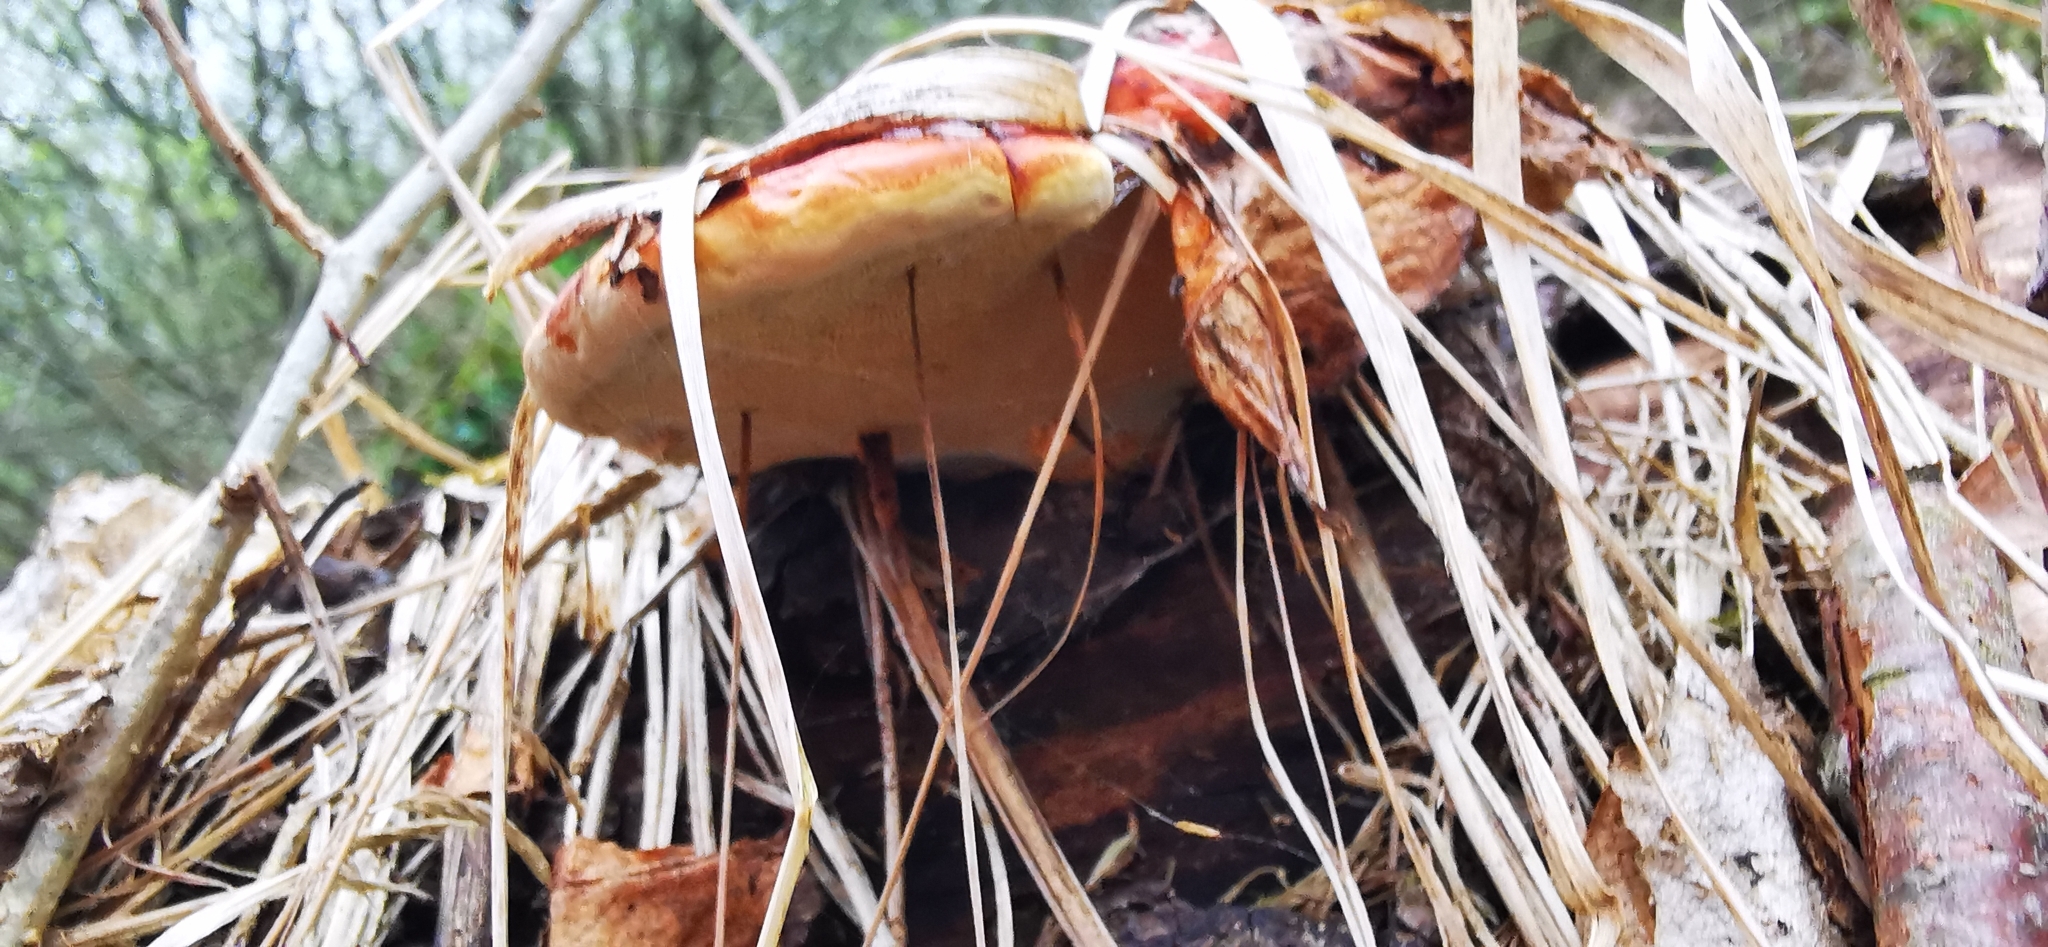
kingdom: Fungi
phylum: Basidiomycota
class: Agaricomycetes
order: Polyporales
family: Fomitopsidaceae
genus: Fomitopsis
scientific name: Fomitopsis pinicola
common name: Red-belted bracket
